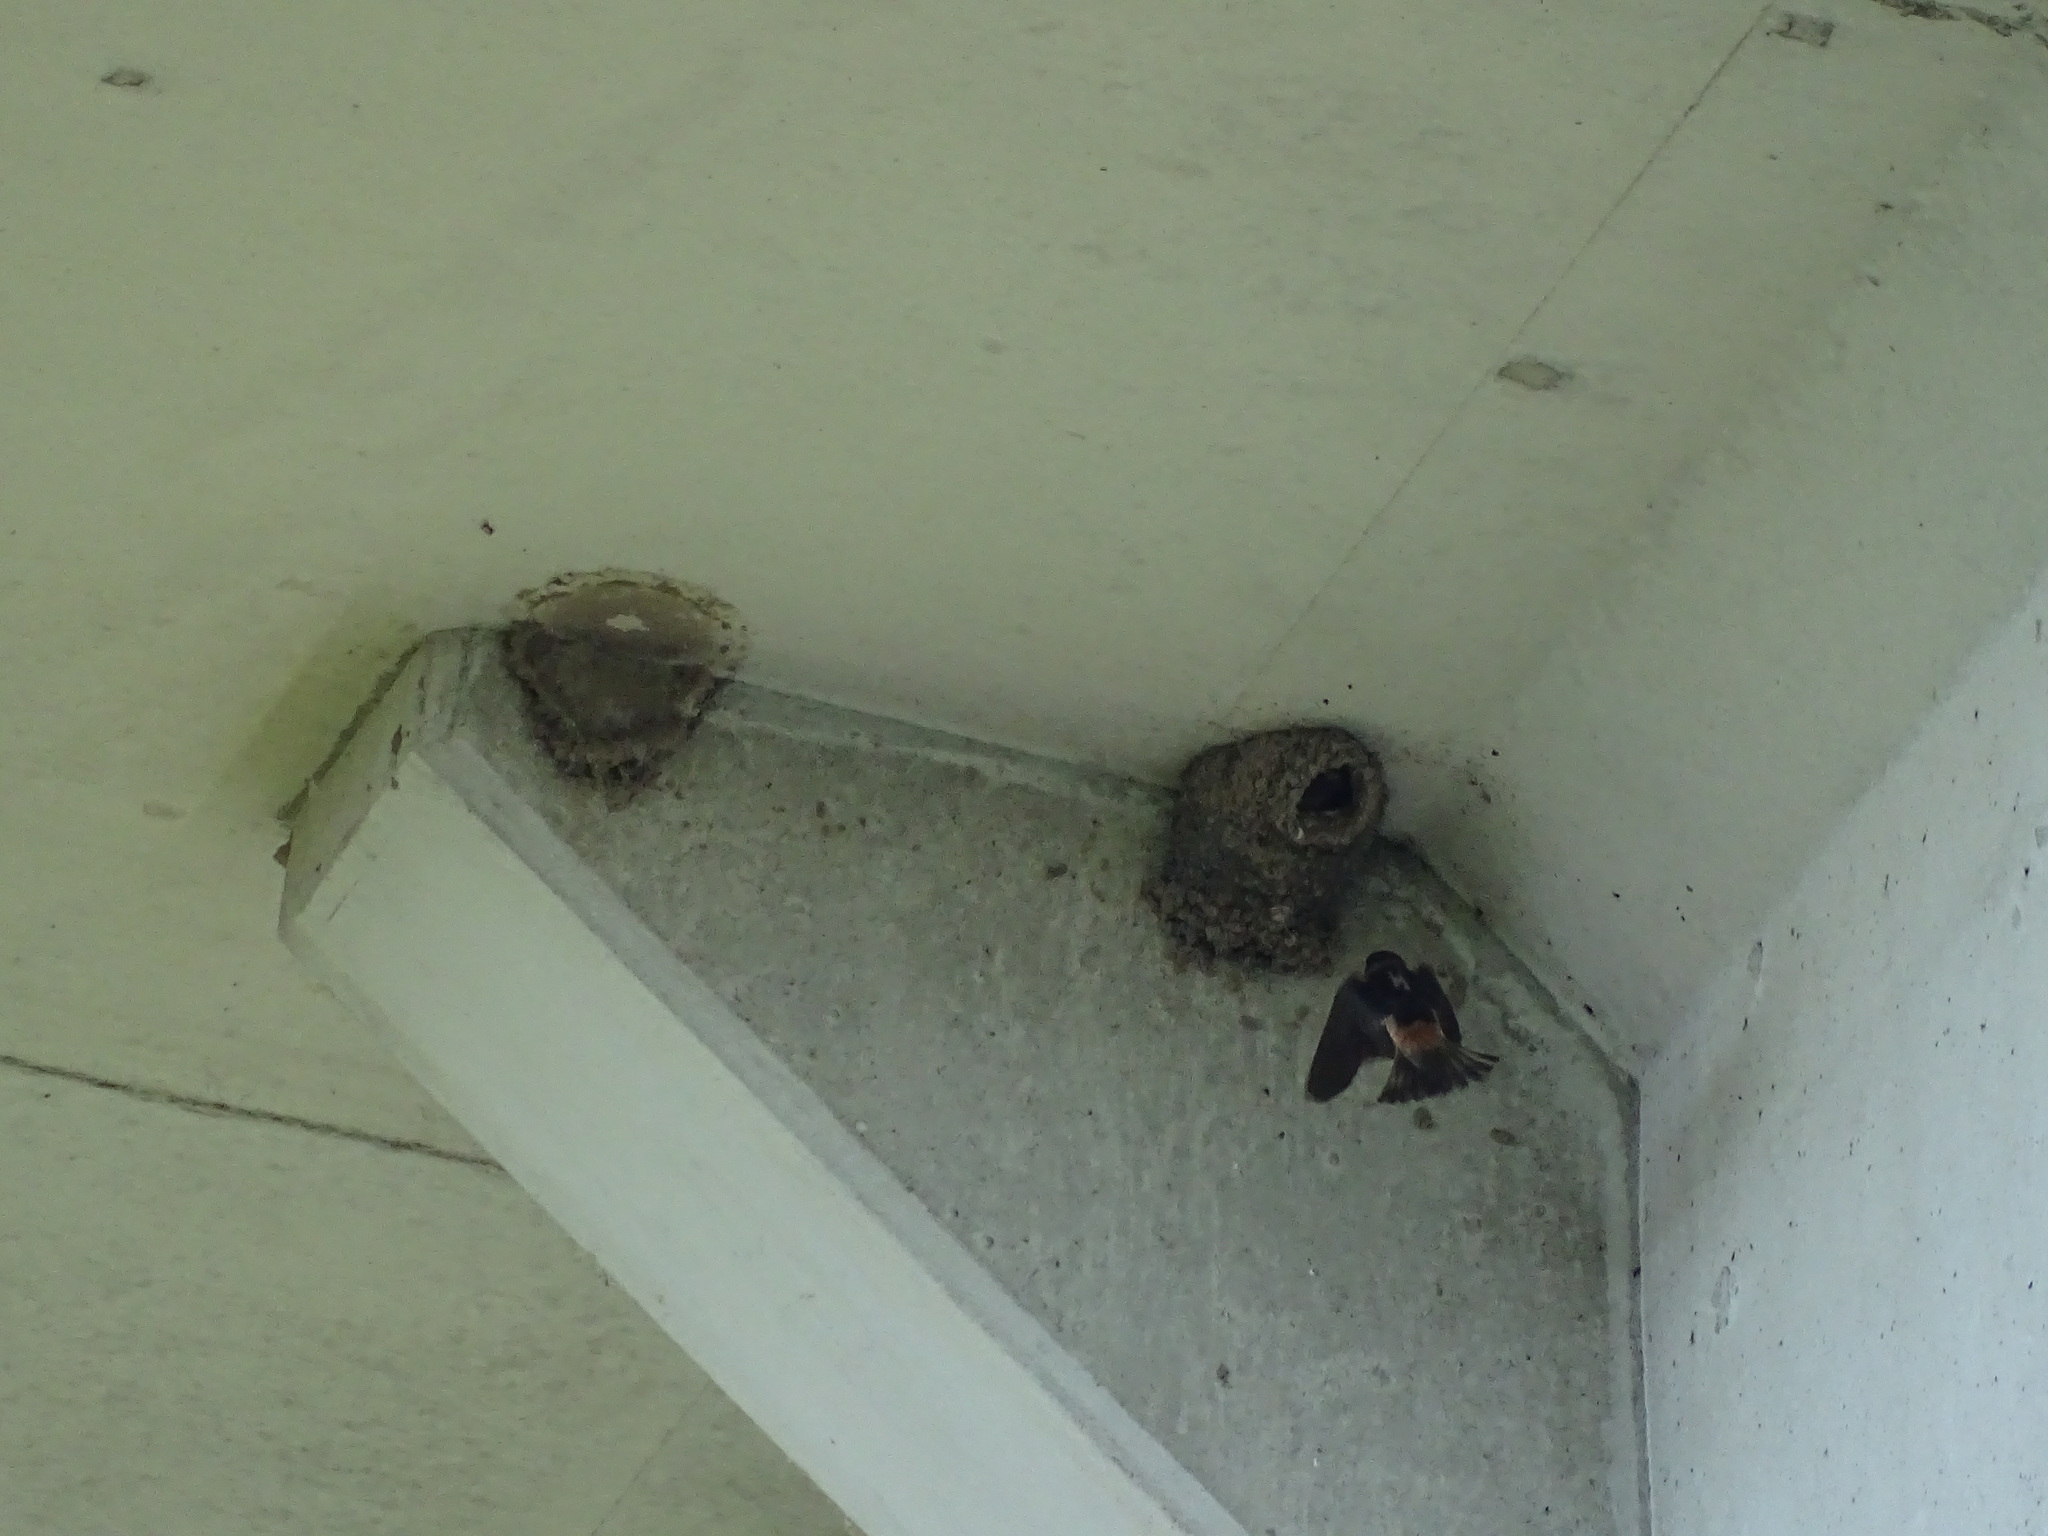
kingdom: Animalia
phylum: Chordata
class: Aves
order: Passeriformes
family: Hirundinidae
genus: Petrochelidon
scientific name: Petrochelidon pyrrhonota
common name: American cliff swallow
